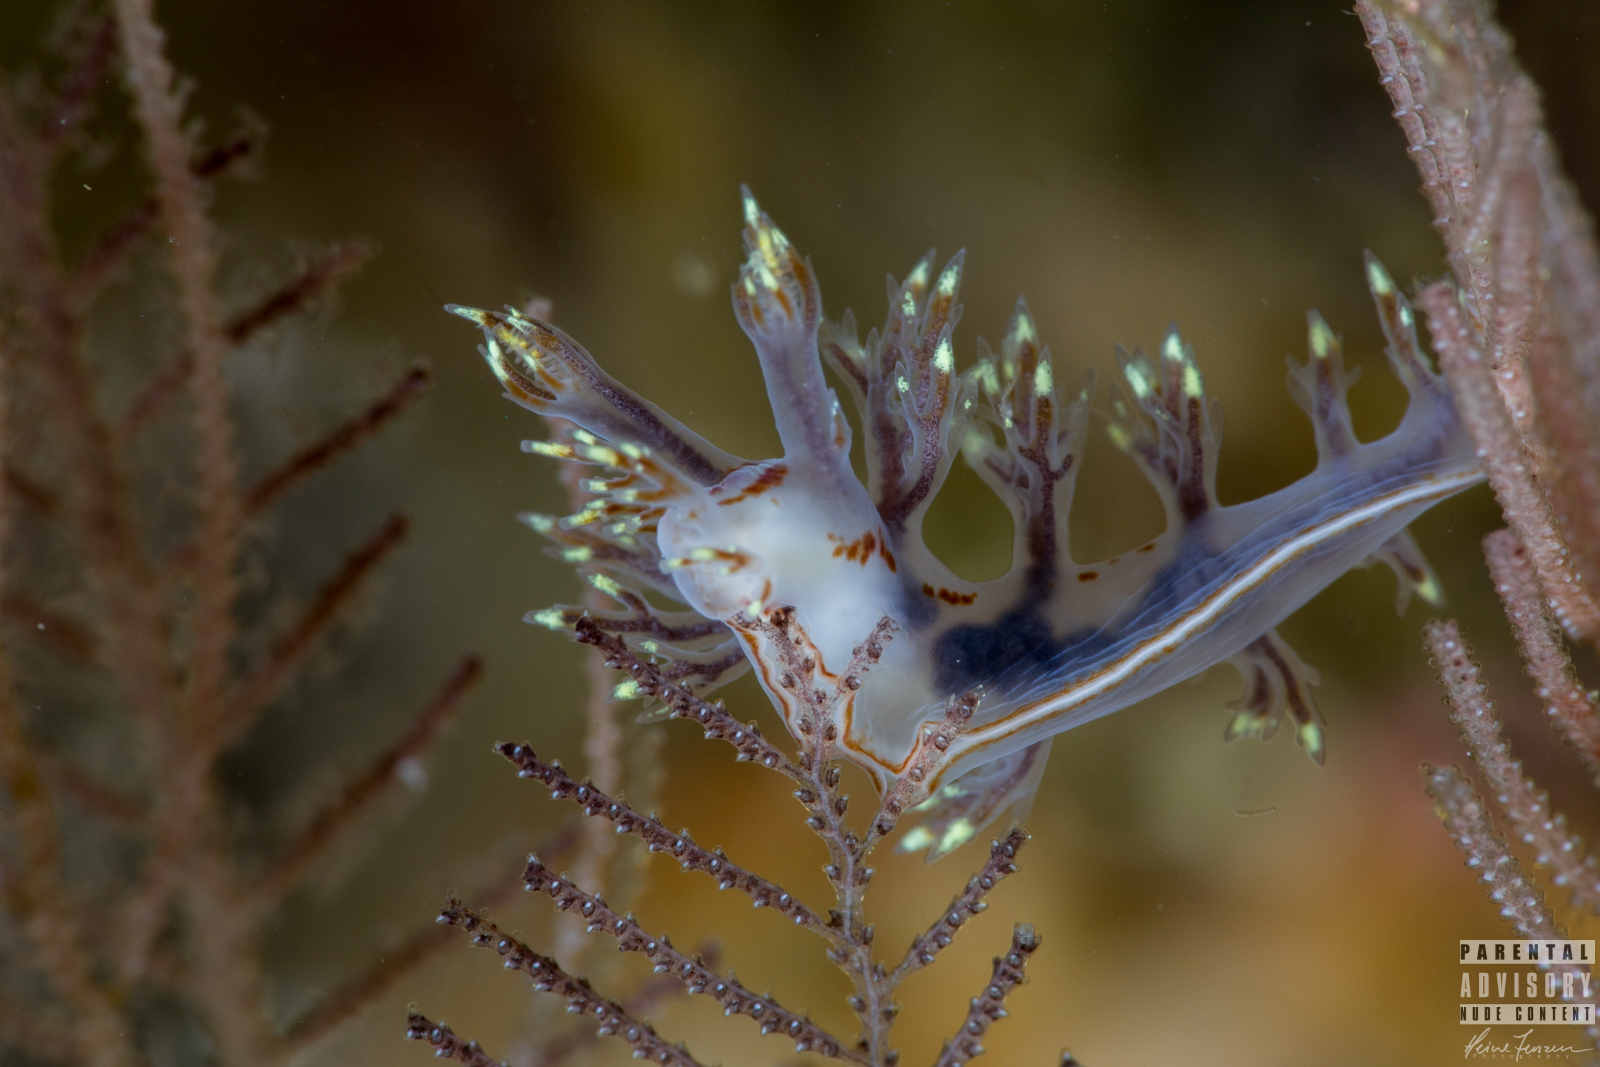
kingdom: Animalia
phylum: Mollusca
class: Gastropoda
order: Nudibranchia
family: Dendronotidae
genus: Dendronotus
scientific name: Dendronotus yrjargul
